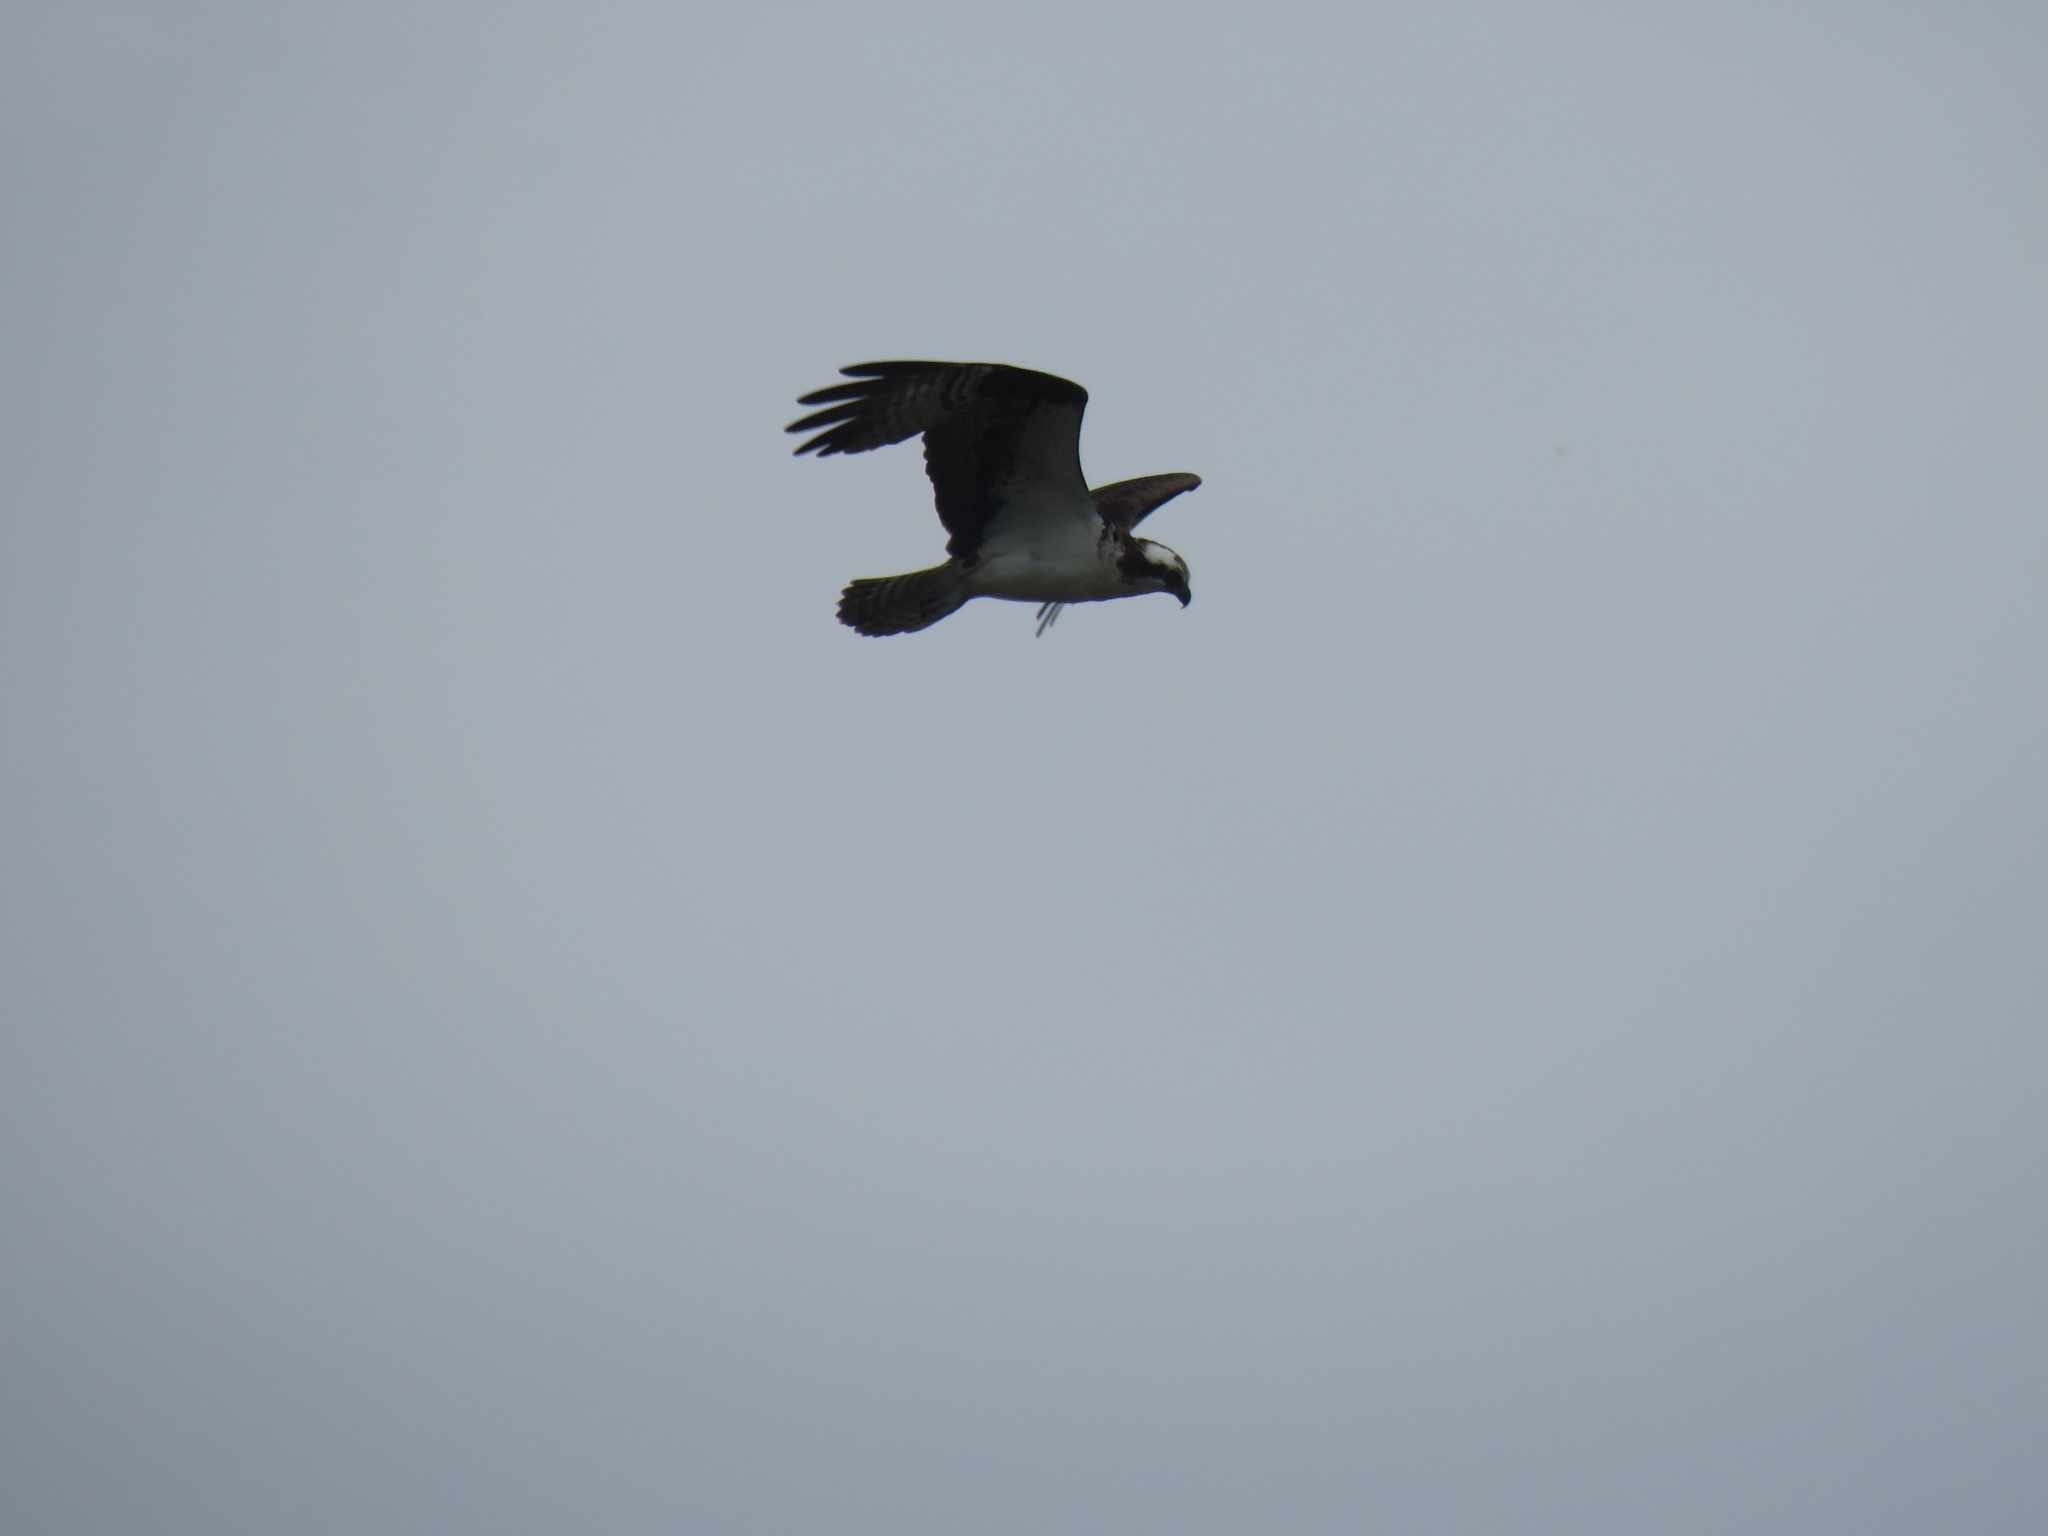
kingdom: Animalia
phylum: Chordata
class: Aves
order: Accipitriformes
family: Pandionidae
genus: Pandion
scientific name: Pandion haliaetus
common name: Osprey
